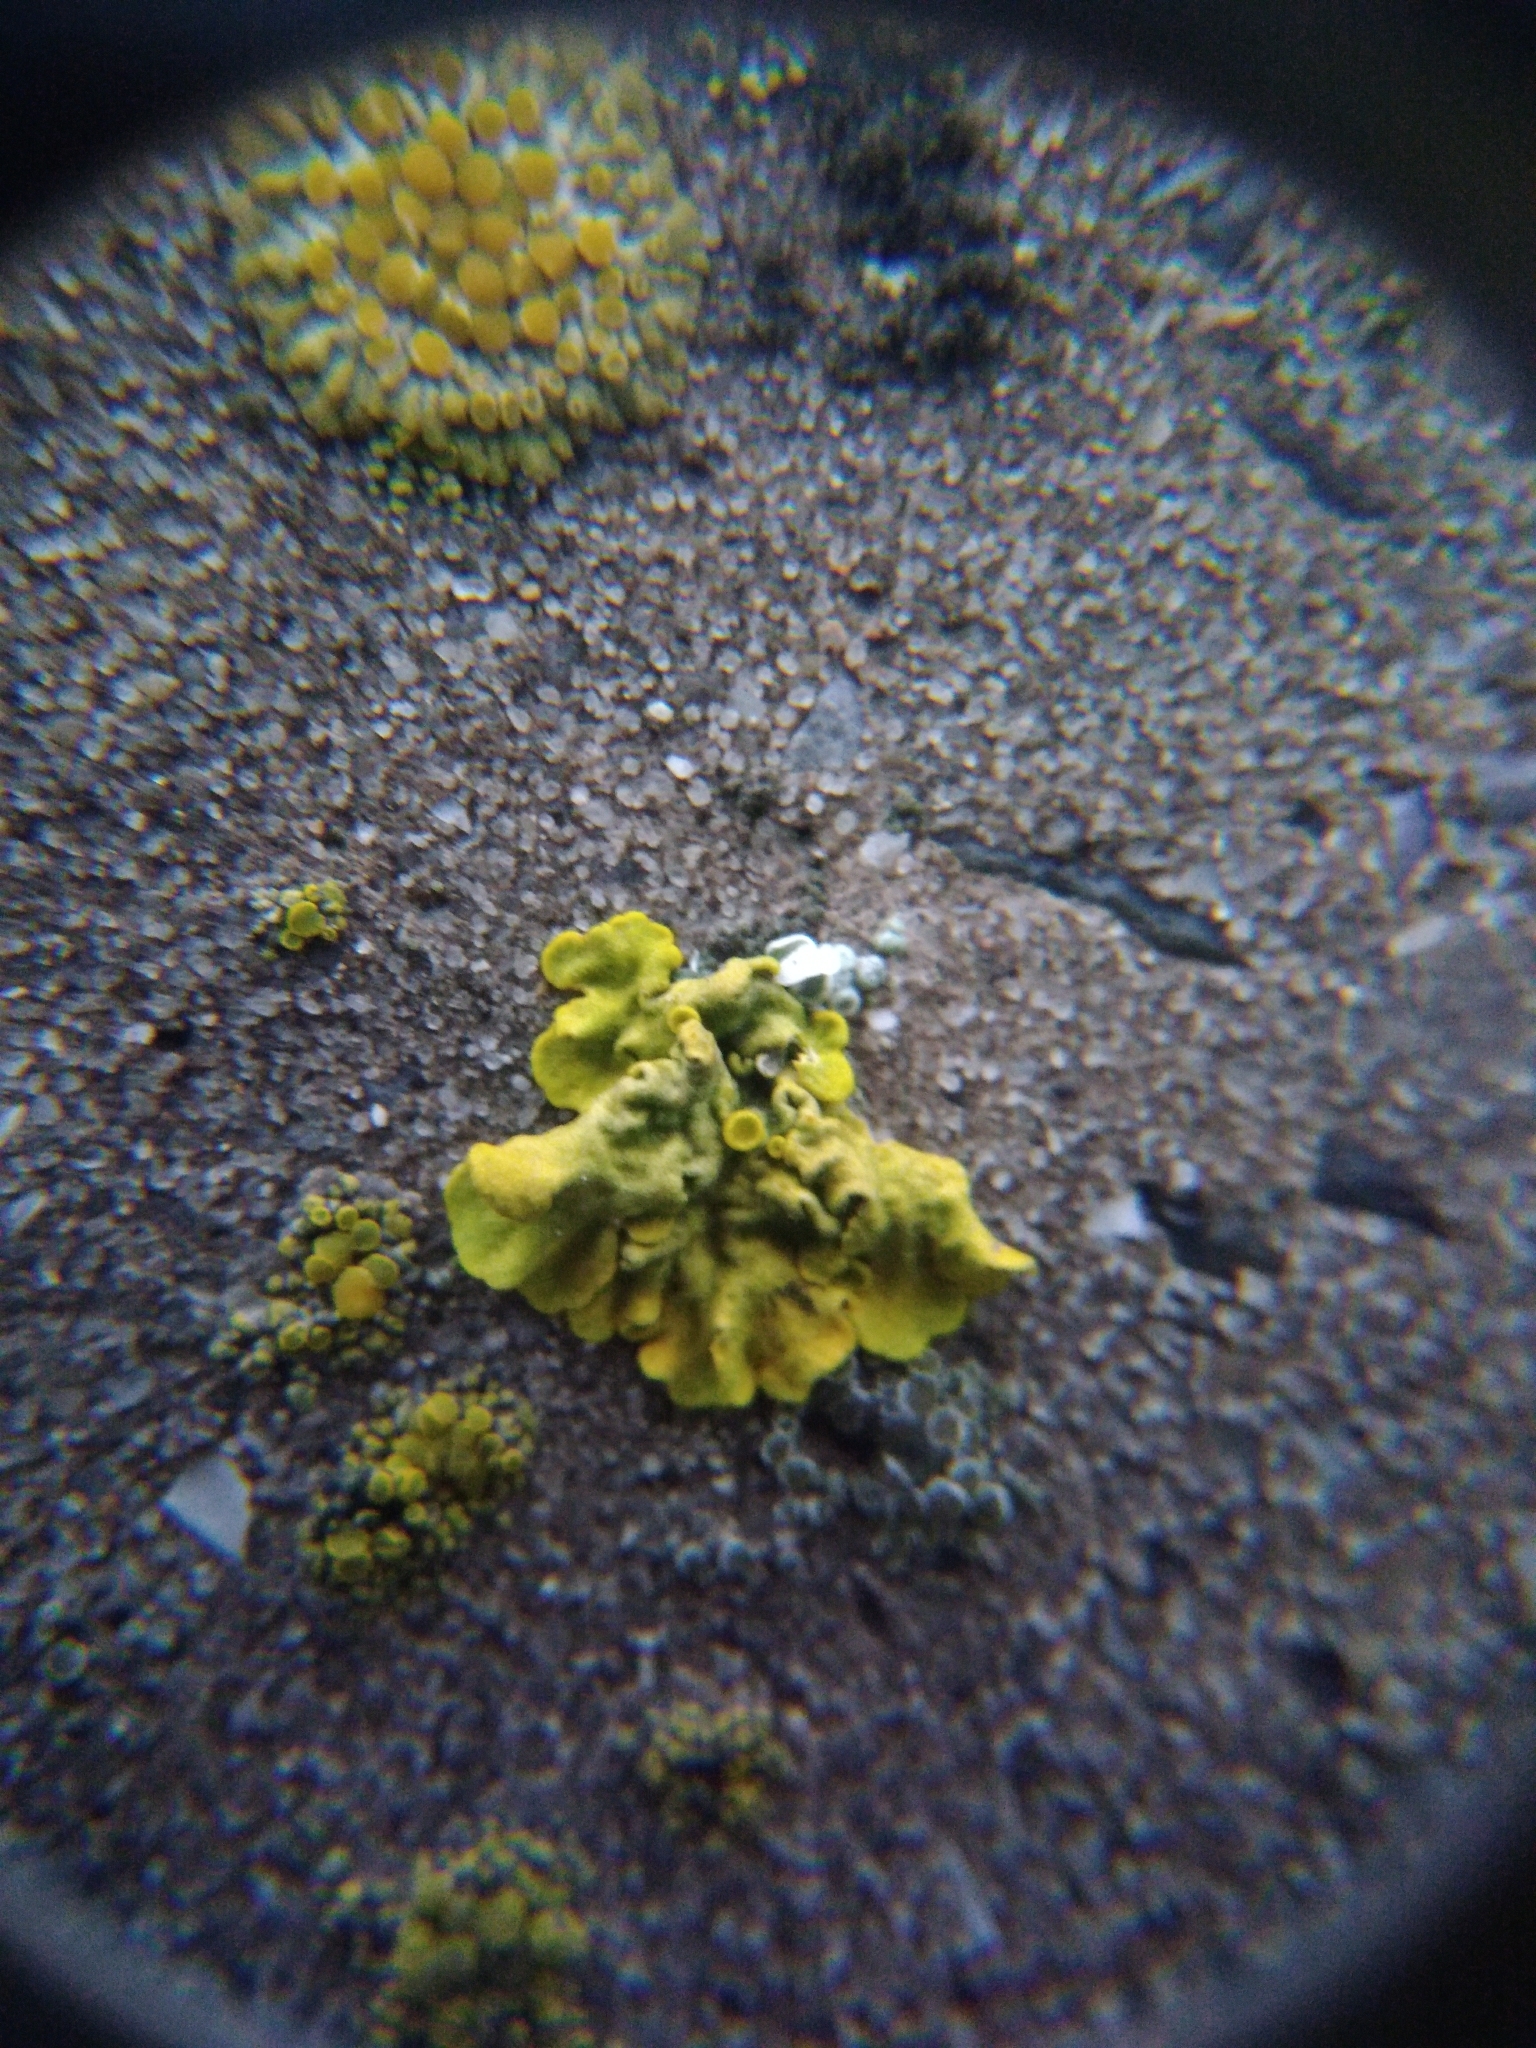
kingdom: Fungi
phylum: Ascomycota
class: Lecanoromycetes
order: Teloschistales
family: Teloschistaceae
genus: Xanthoria
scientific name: Xanthoria parietina
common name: Common orange lichen
